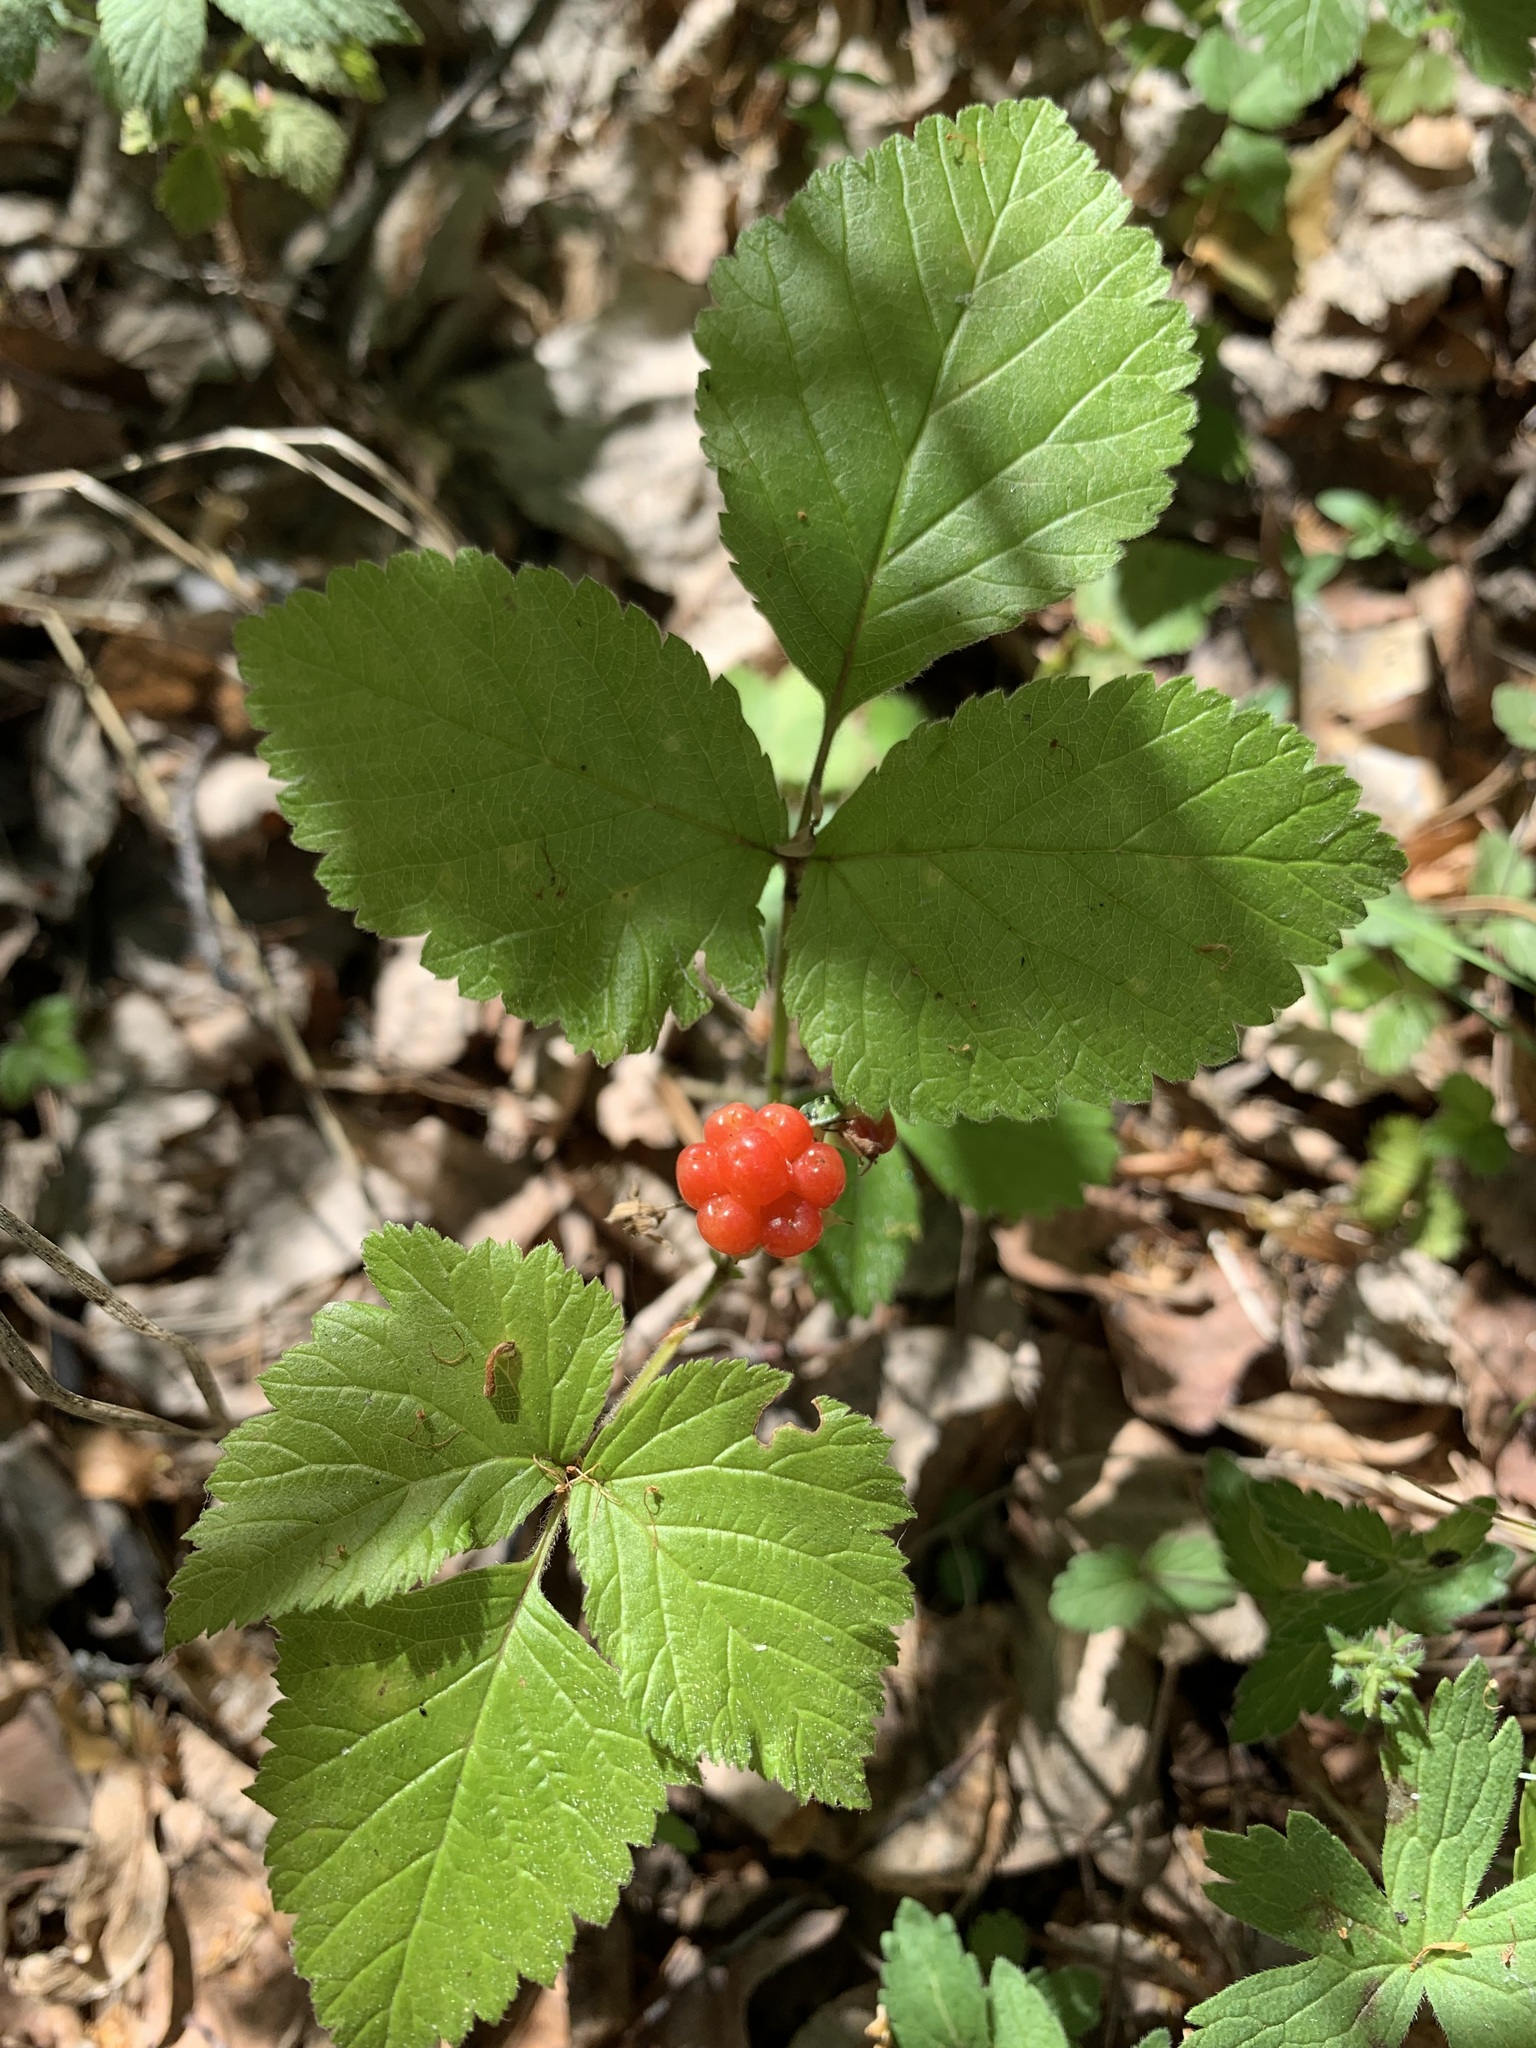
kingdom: Plantae
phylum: Tracheophyta
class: Magnoliopsida
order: Rosales
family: Rosaceae
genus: Rubus
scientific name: Rubus saxatilis
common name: Stone bramble
